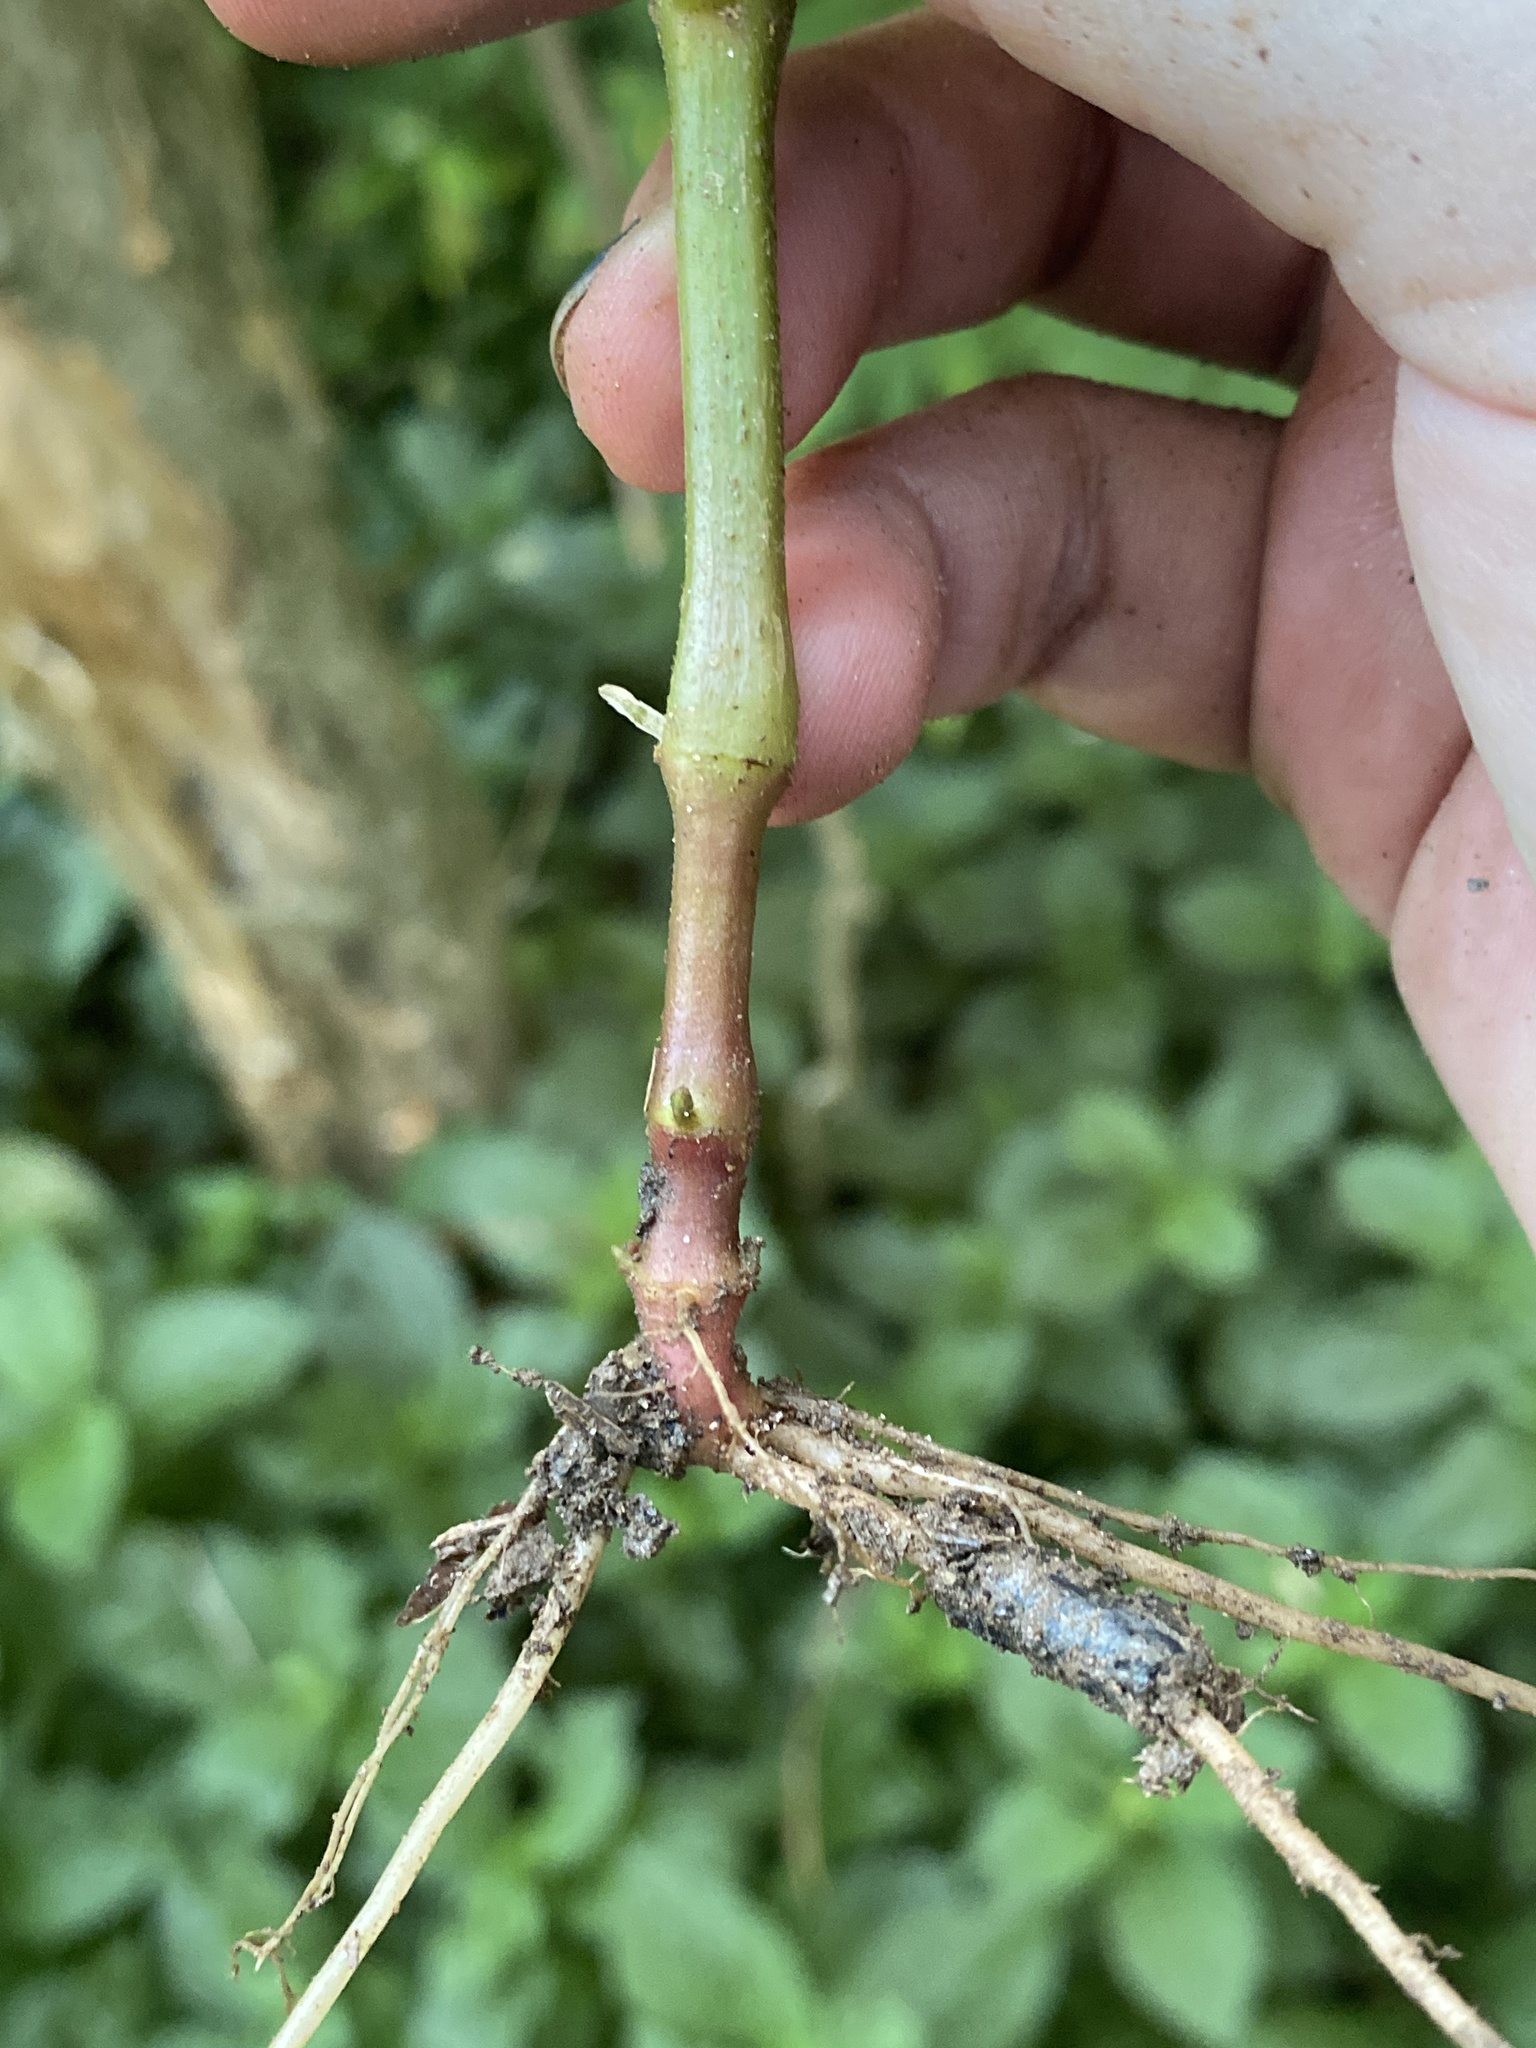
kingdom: Plantae
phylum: Tracheophyta
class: Magnoliopsida
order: Caryophyllales
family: Amaranthaceae
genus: Achyranthes
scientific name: Achyranthes bidentata
